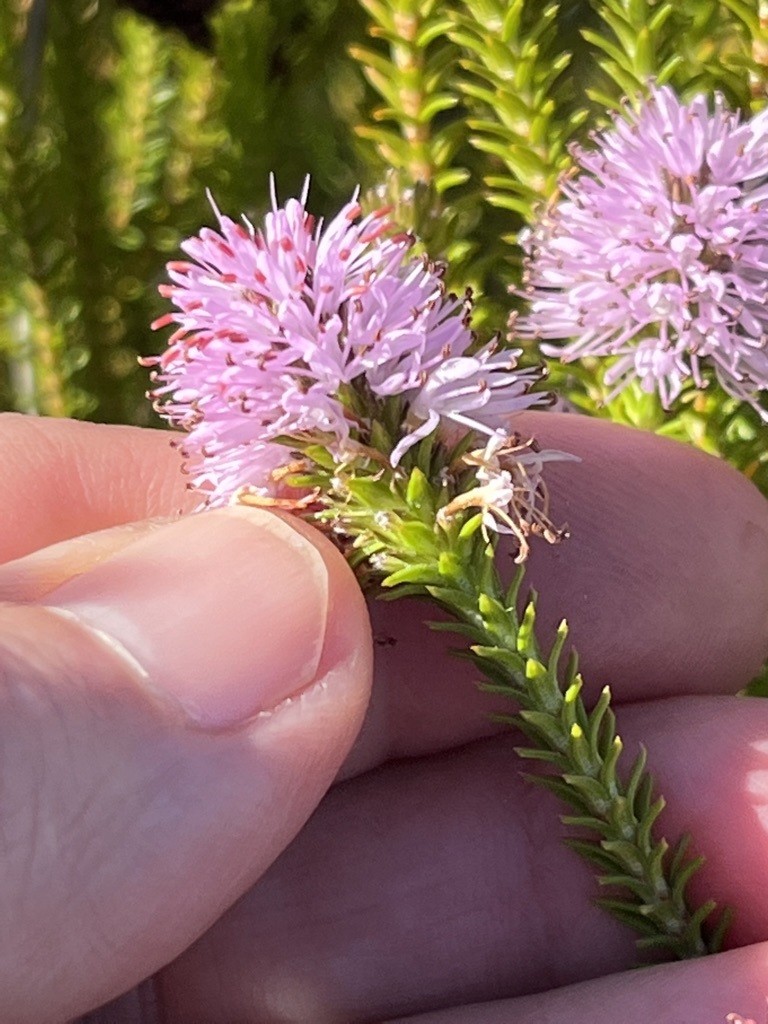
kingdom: Plantae
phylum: Tracheophyta
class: Magnoliopsida
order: Lamiales
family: Stilbaceae
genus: Stilbe
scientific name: Stilbe overbergensis
